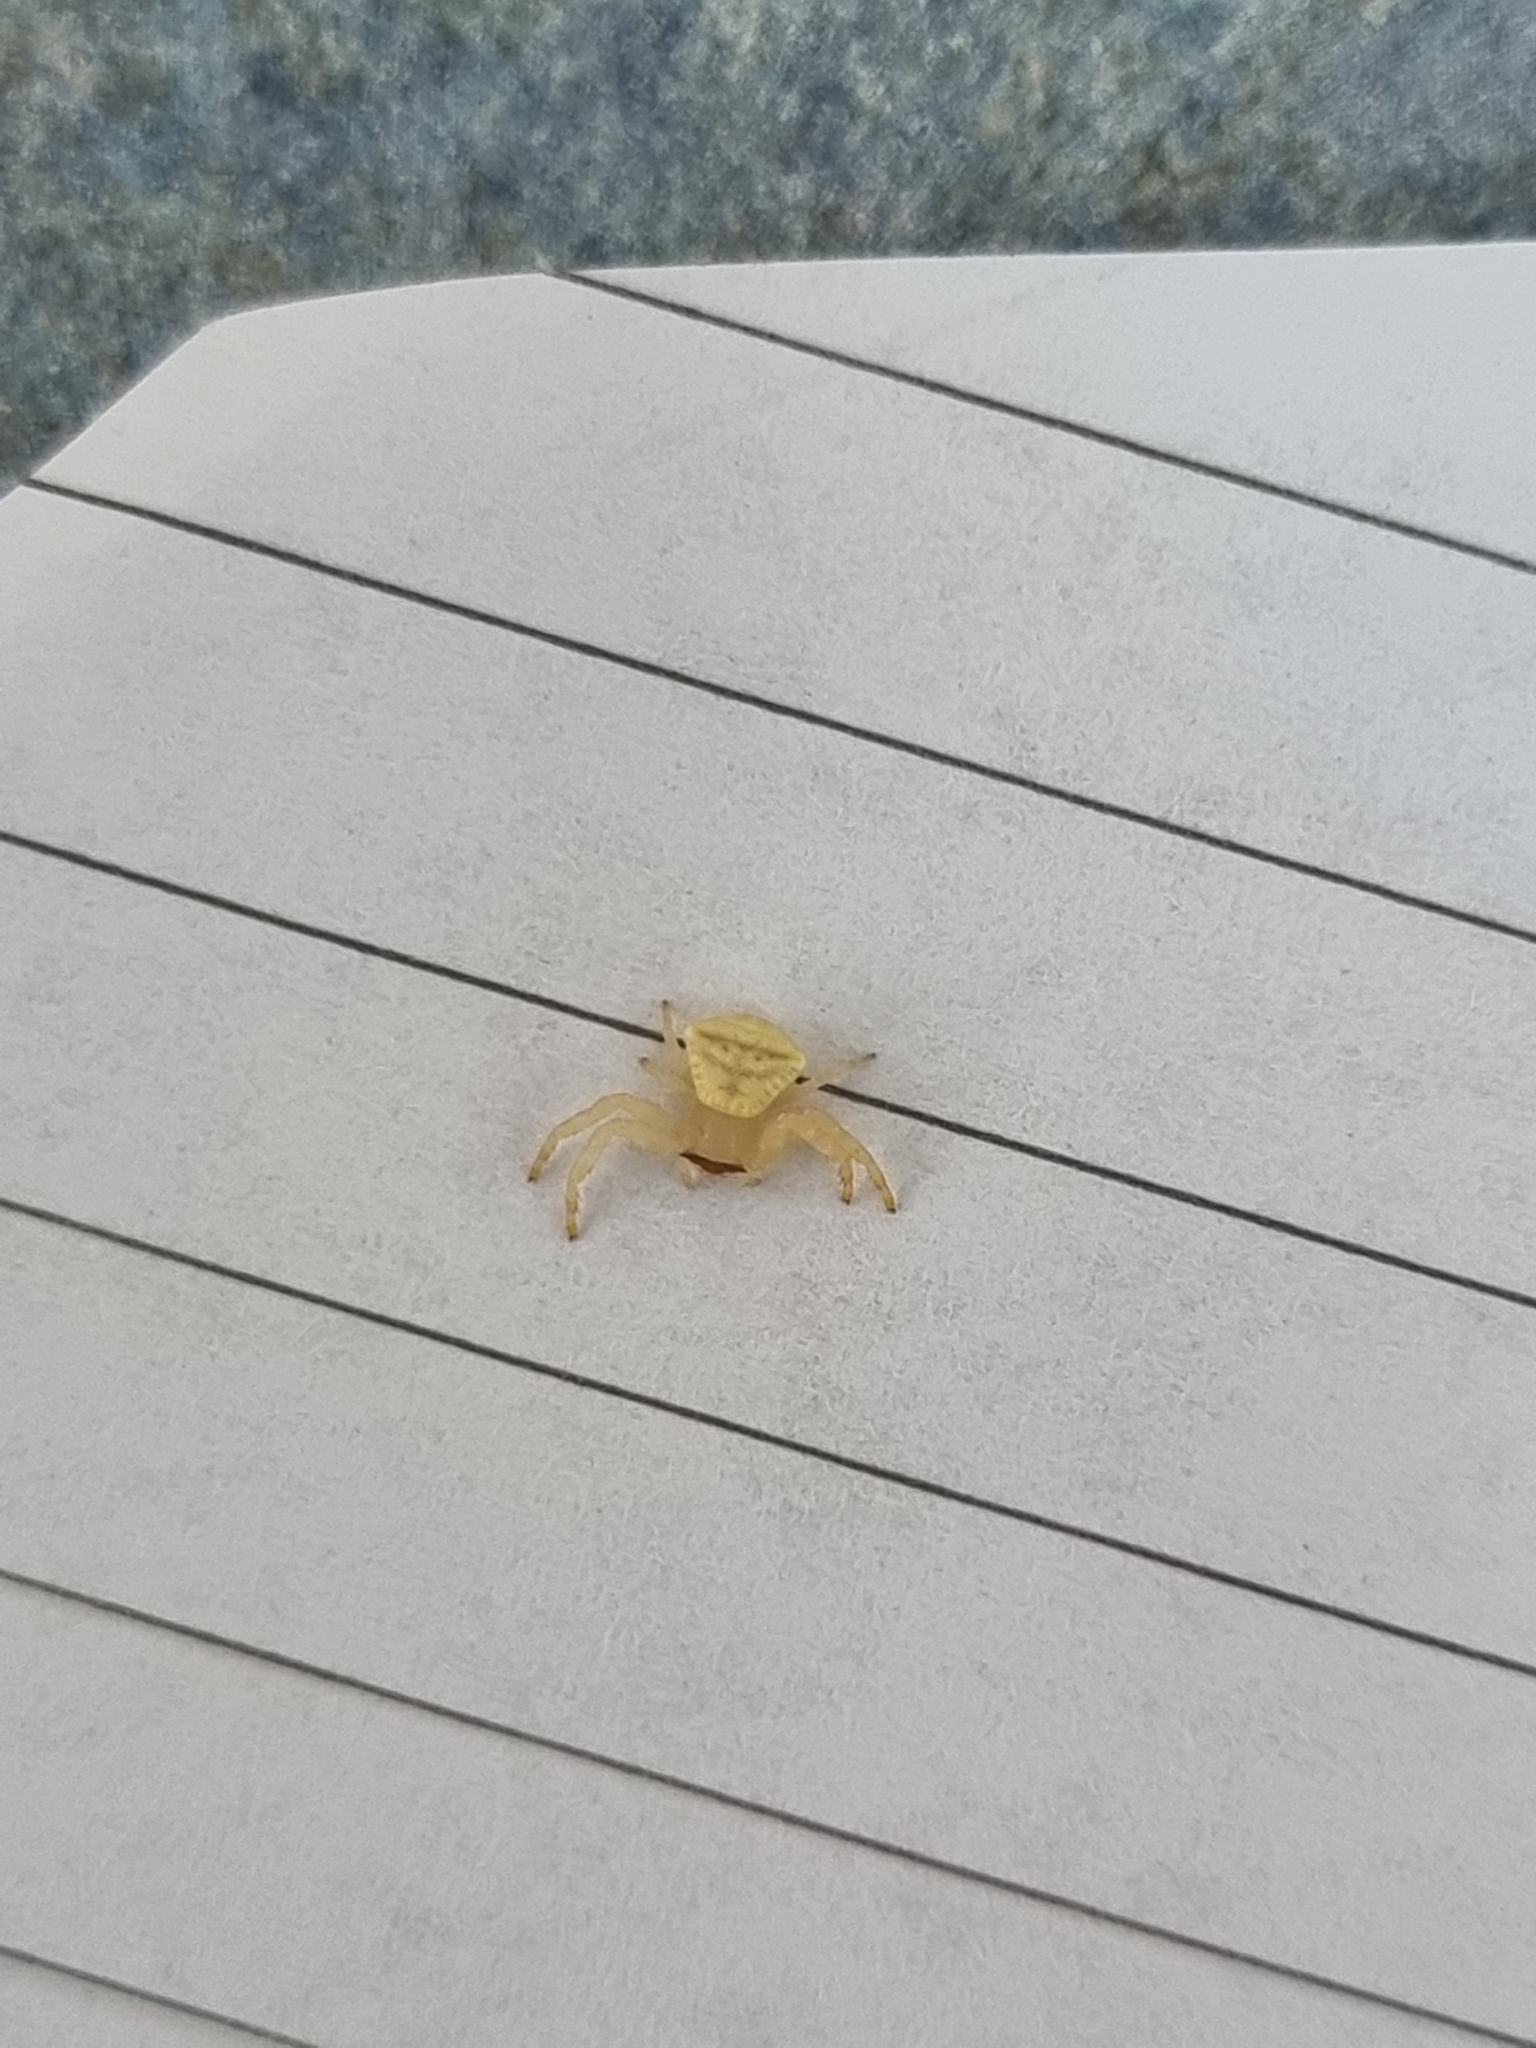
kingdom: Animalia
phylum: Arthropoda
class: Arachnida
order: Araneae
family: Thomisidae
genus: Thomisus
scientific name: Thomisus spectabilis
